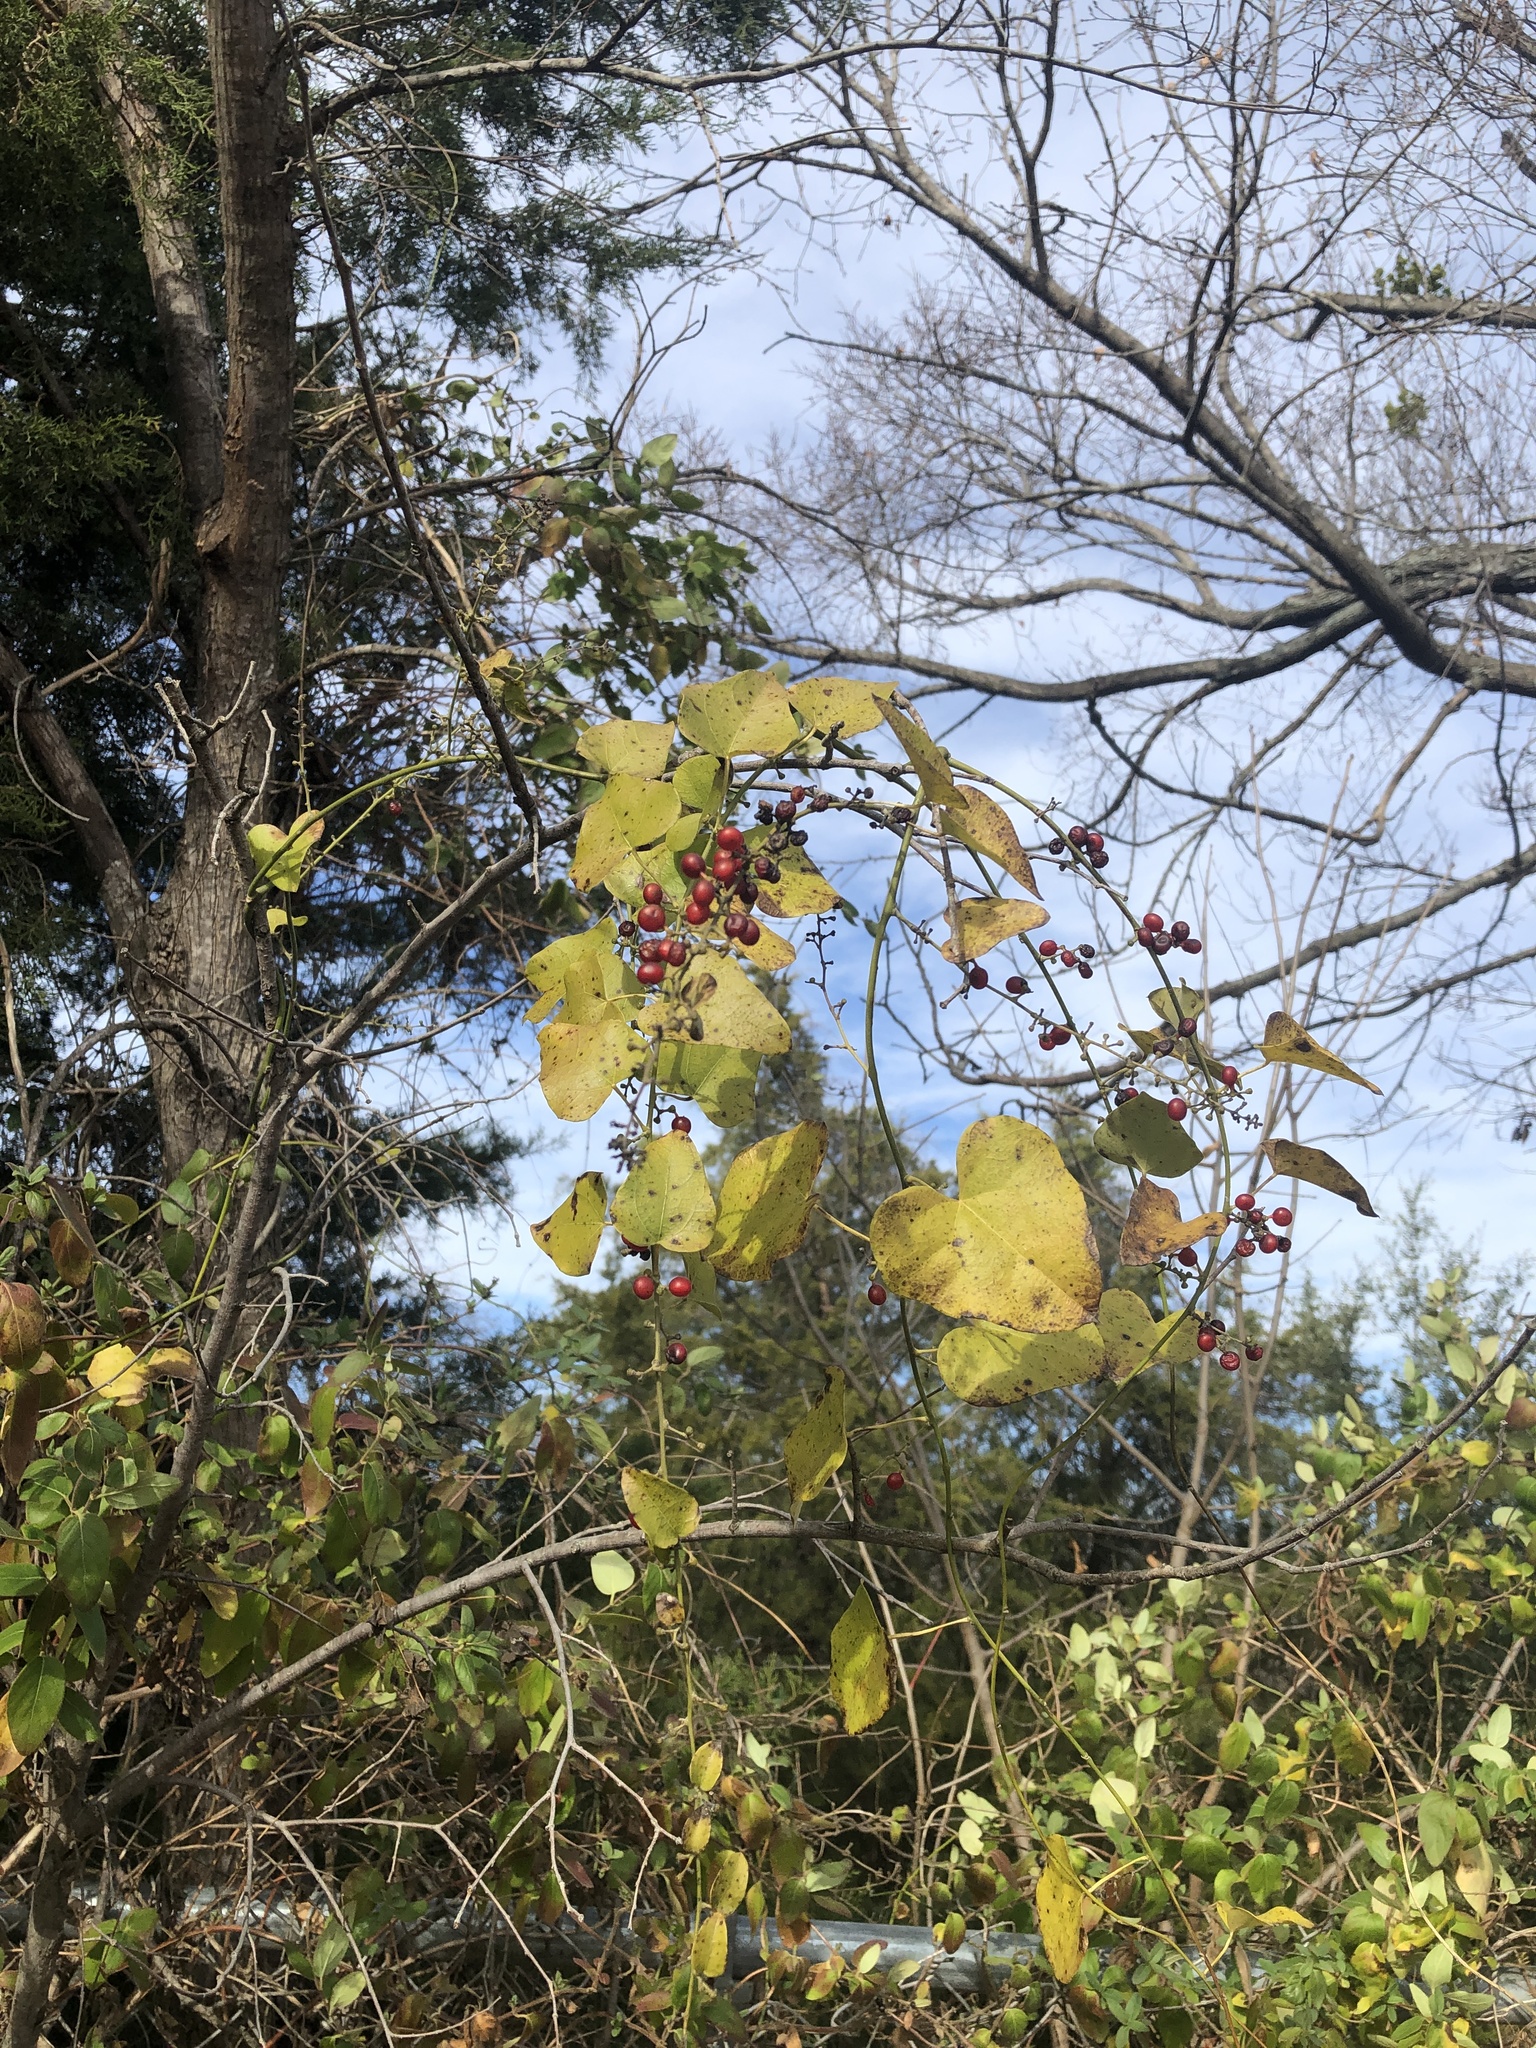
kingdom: Plantae
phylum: Tracheophyta
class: Magnoliopsida
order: Ranunculales
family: Menispermaceae
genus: Cocculus
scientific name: Cocculus carolinus
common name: Carolina moonseed
